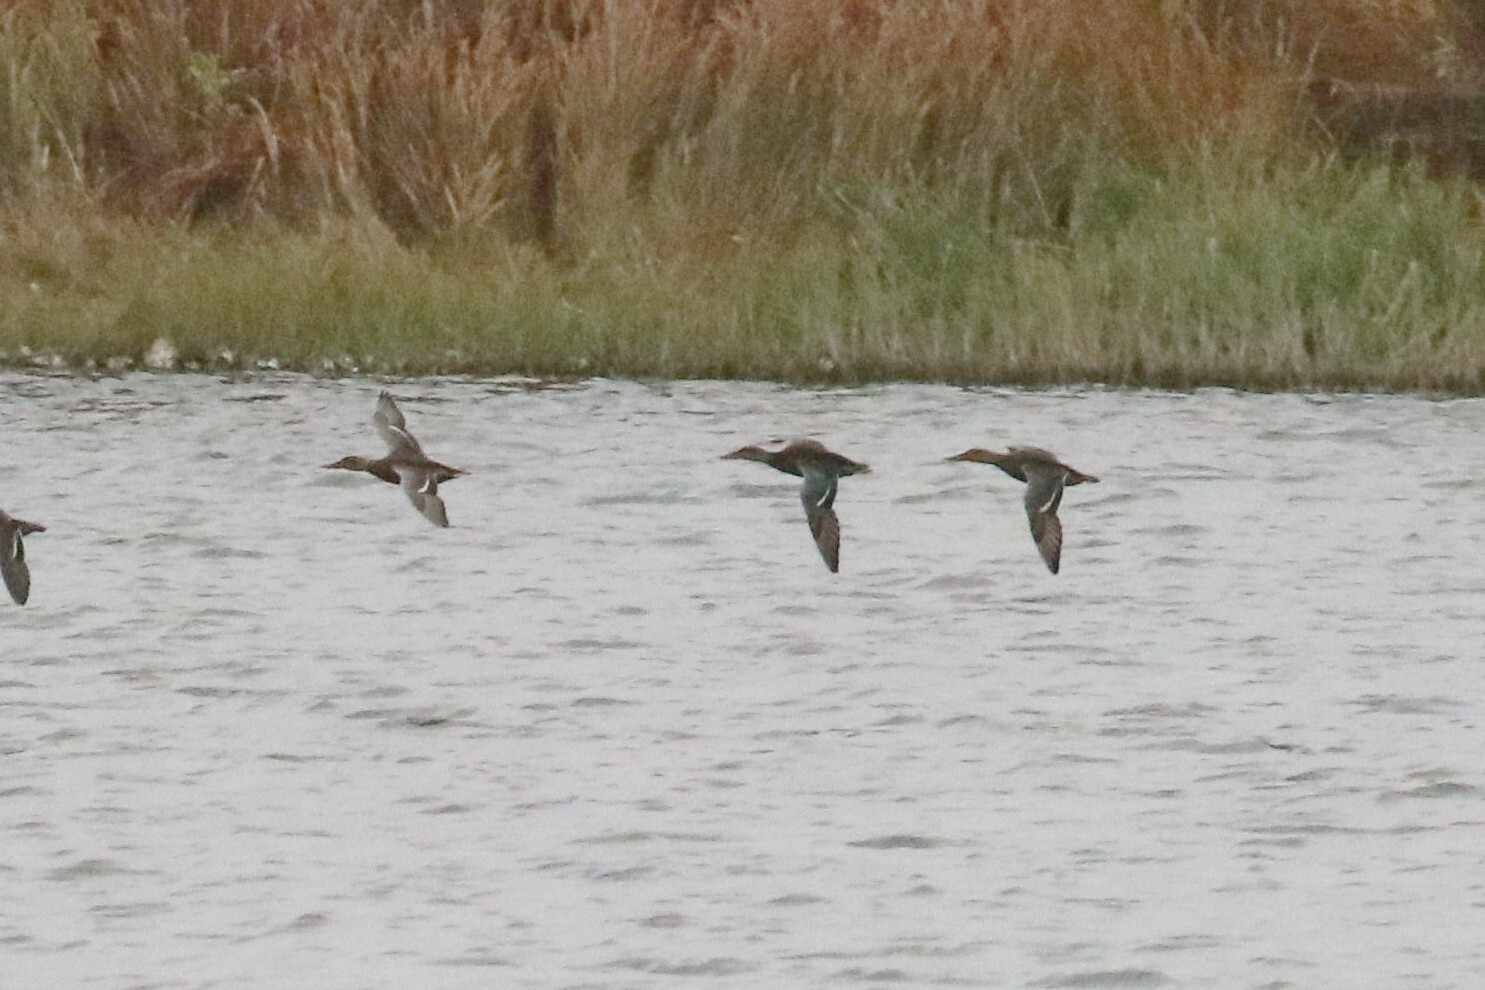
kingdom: Animalia
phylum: Chordata
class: Aves
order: Anseriformes
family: Anatidae
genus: Spatula
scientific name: Spatula clypeata
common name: Northern shoveler
